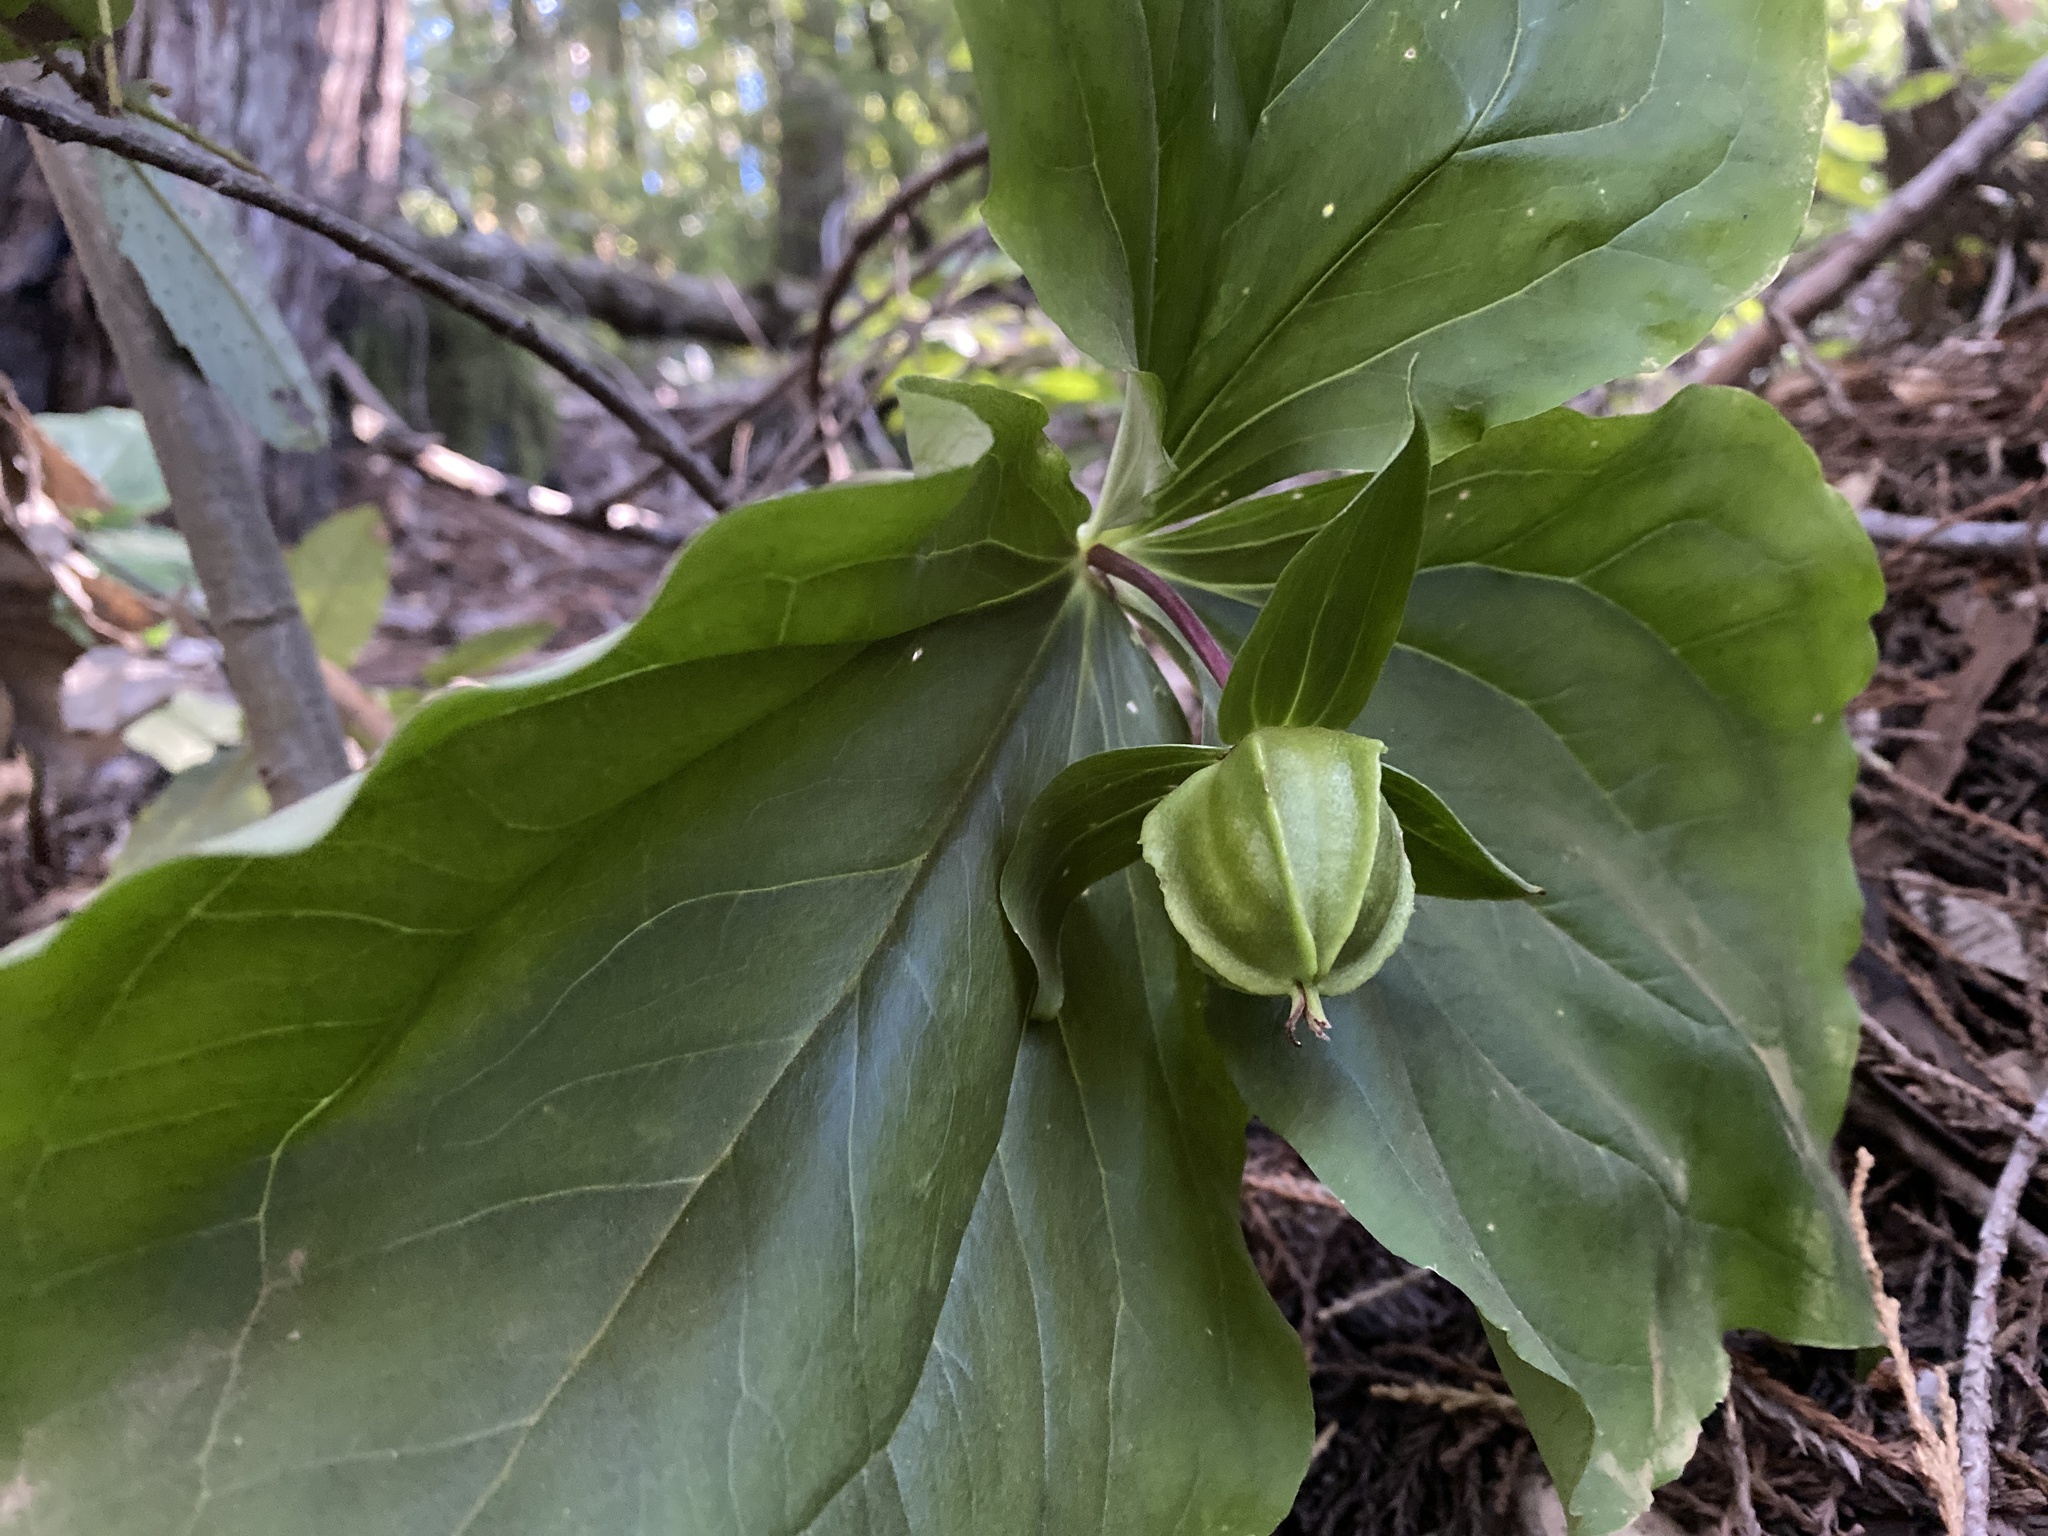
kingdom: Plantae
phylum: Tracheophyta
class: Liliopsida
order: Liliales
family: Melanthiaceae
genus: Trillium
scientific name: Trillium ovatum
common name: Pacific trillium
